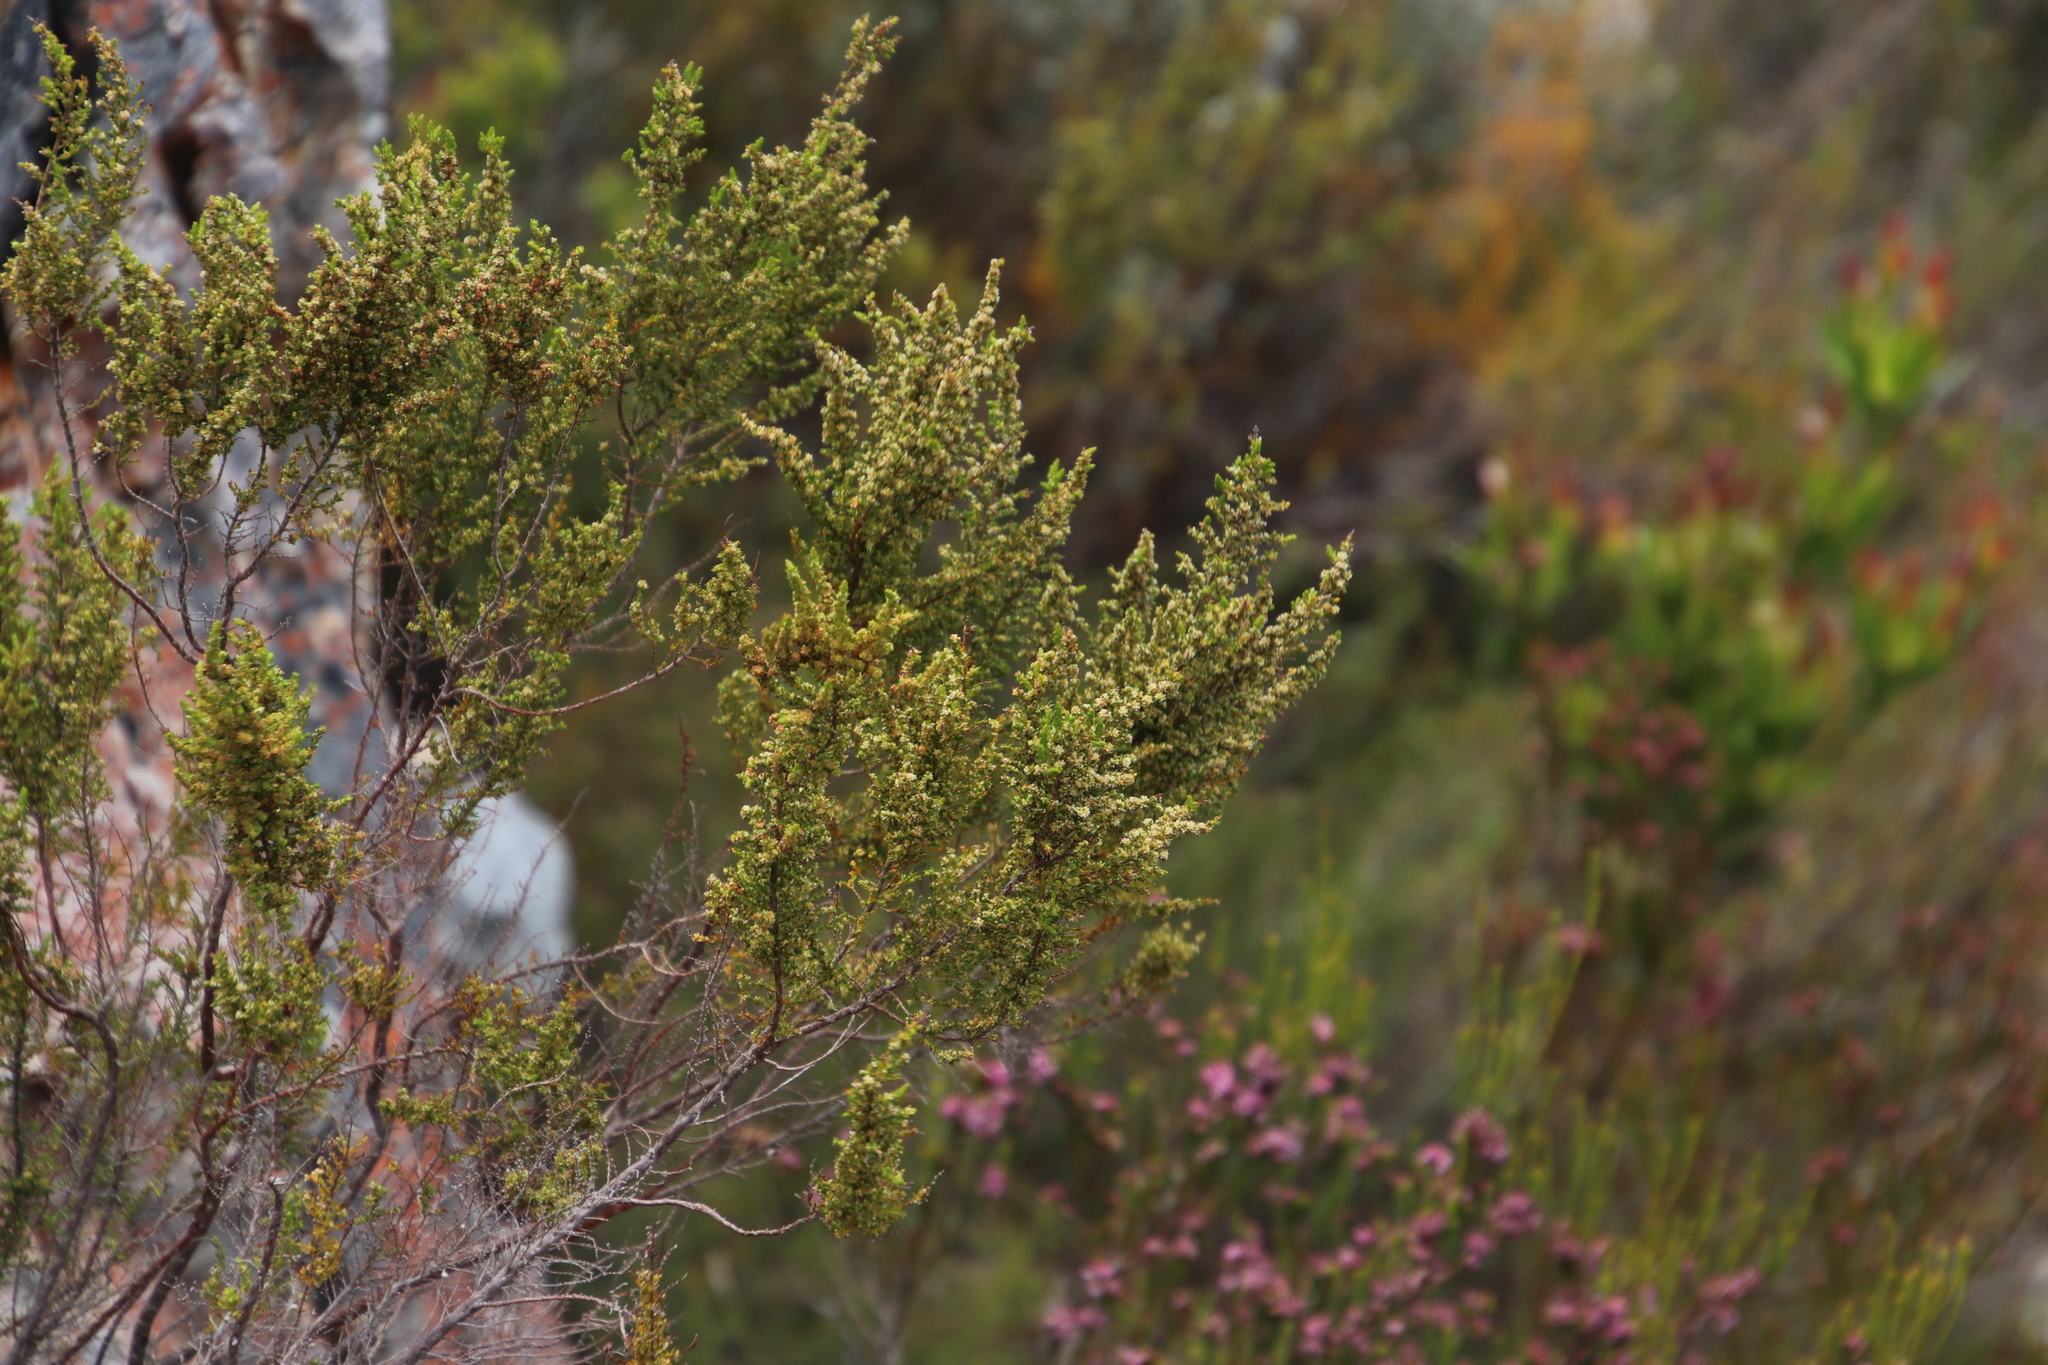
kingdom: Plantae
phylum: Tracheophyta
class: Magnoliopsida
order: Ericales
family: Ericaceae
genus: Erica
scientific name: Erica muscosa
